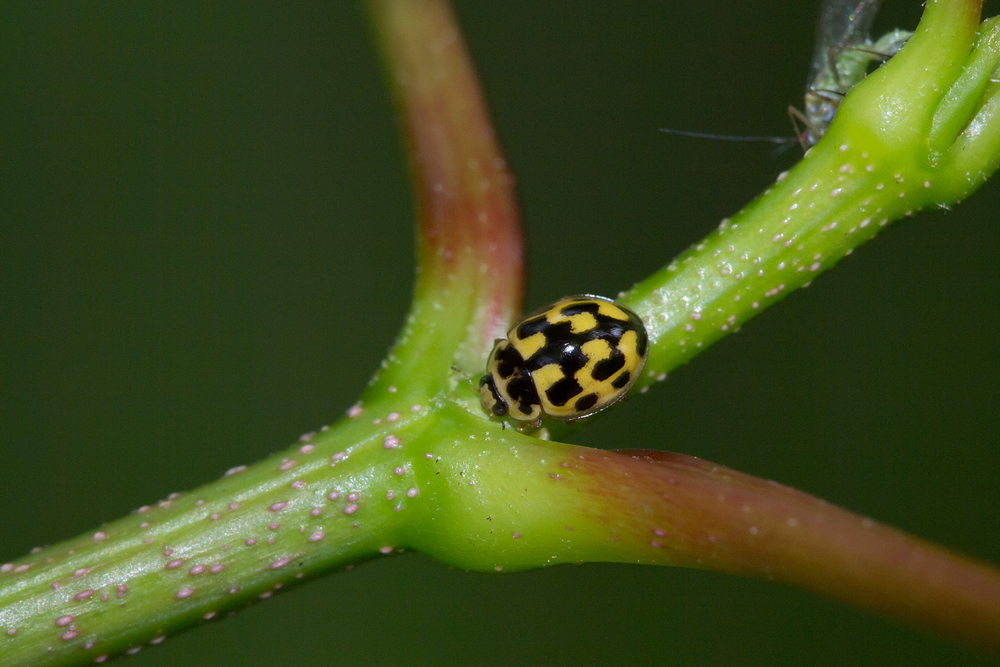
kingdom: Animalia
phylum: Arthropoda
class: Insecta
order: Coleoptera
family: Coccinellidae
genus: Propylaea
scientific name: Propylaea quatuordecimpunctata
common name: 14-spotted ladybird beetle
